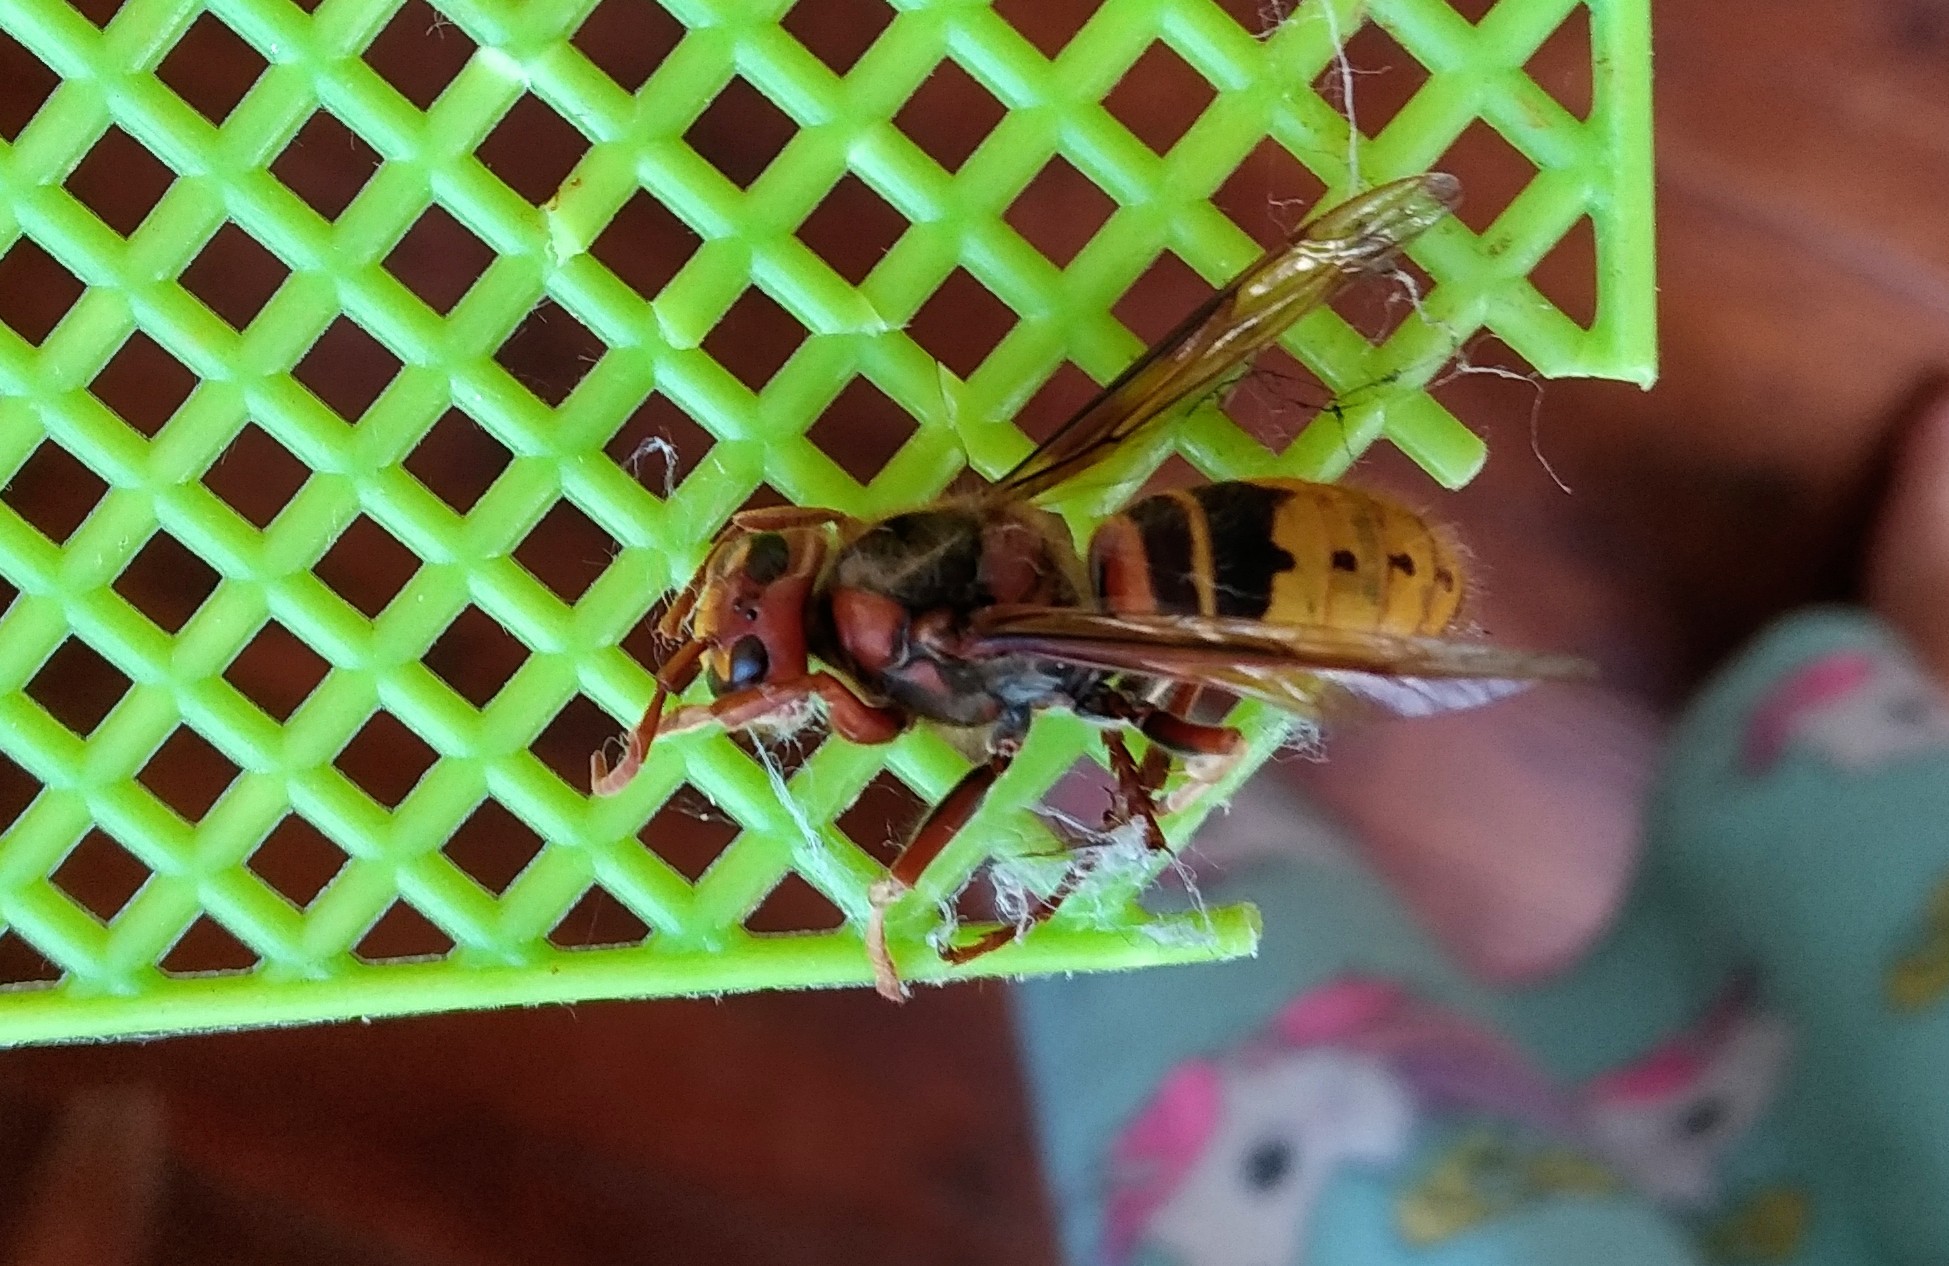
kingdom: Animalia
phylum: Arthropoda
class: Insecta
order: Hymenoptera
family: Vespidae
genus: Vespa
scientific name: Vespa crabro
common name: Hornet
